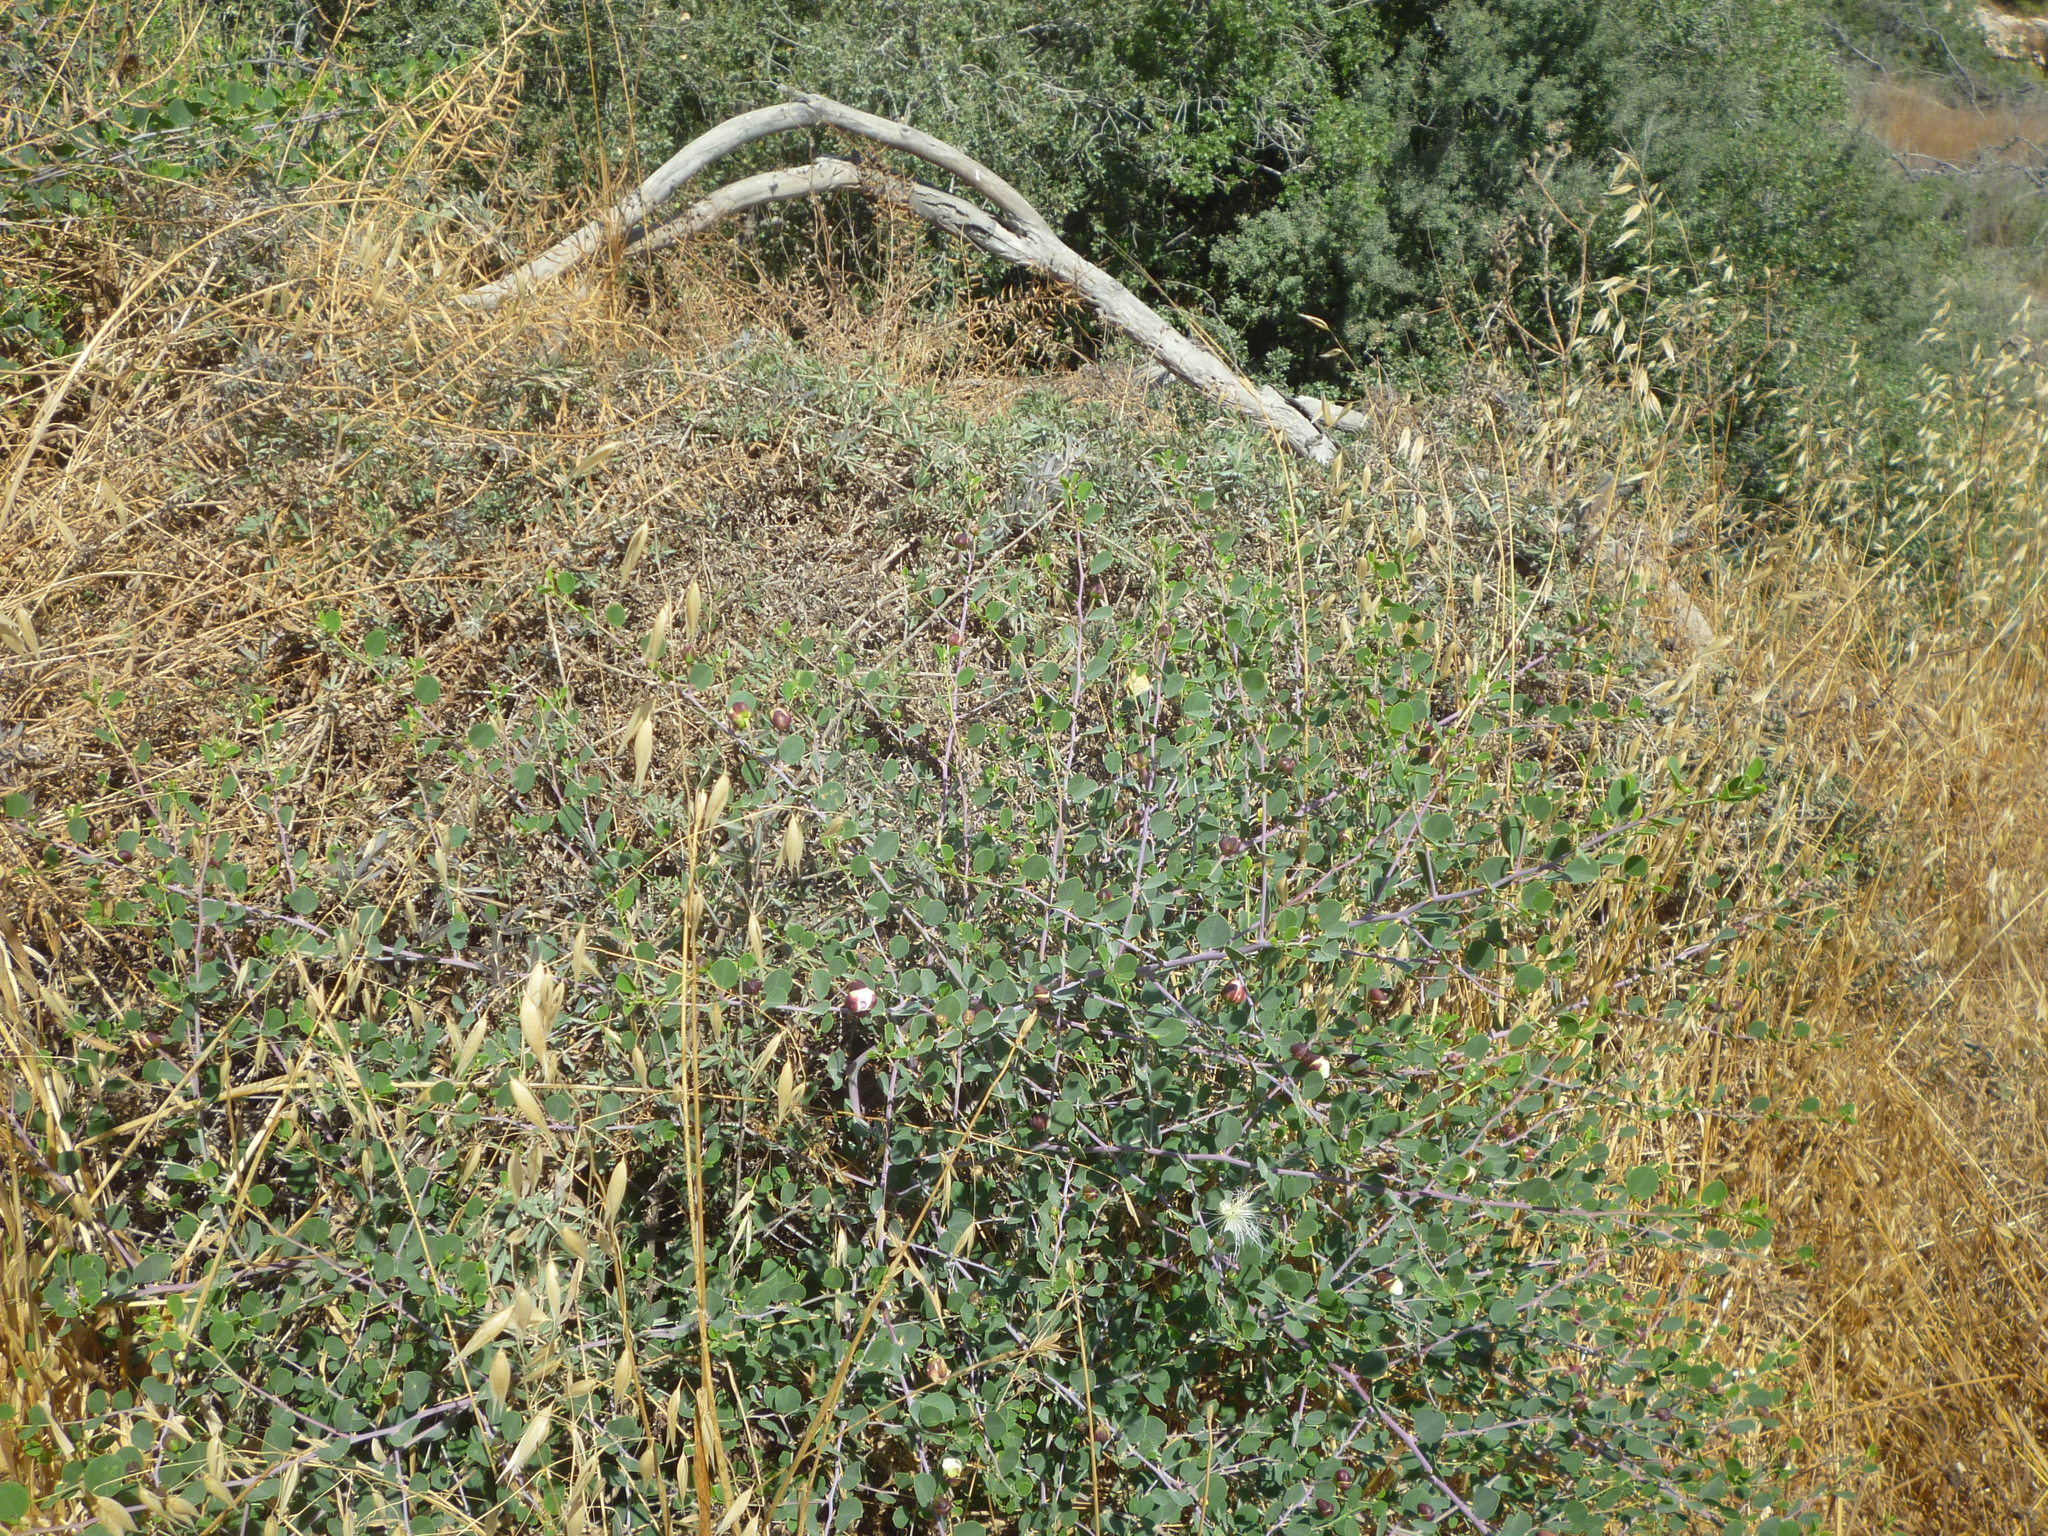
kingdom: Plantae
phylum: Tracheophyta
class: Magnoliopsida
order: Brassicales
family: Capparaceae
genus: Capparis
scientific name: Capparis spinosa
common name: Caper
